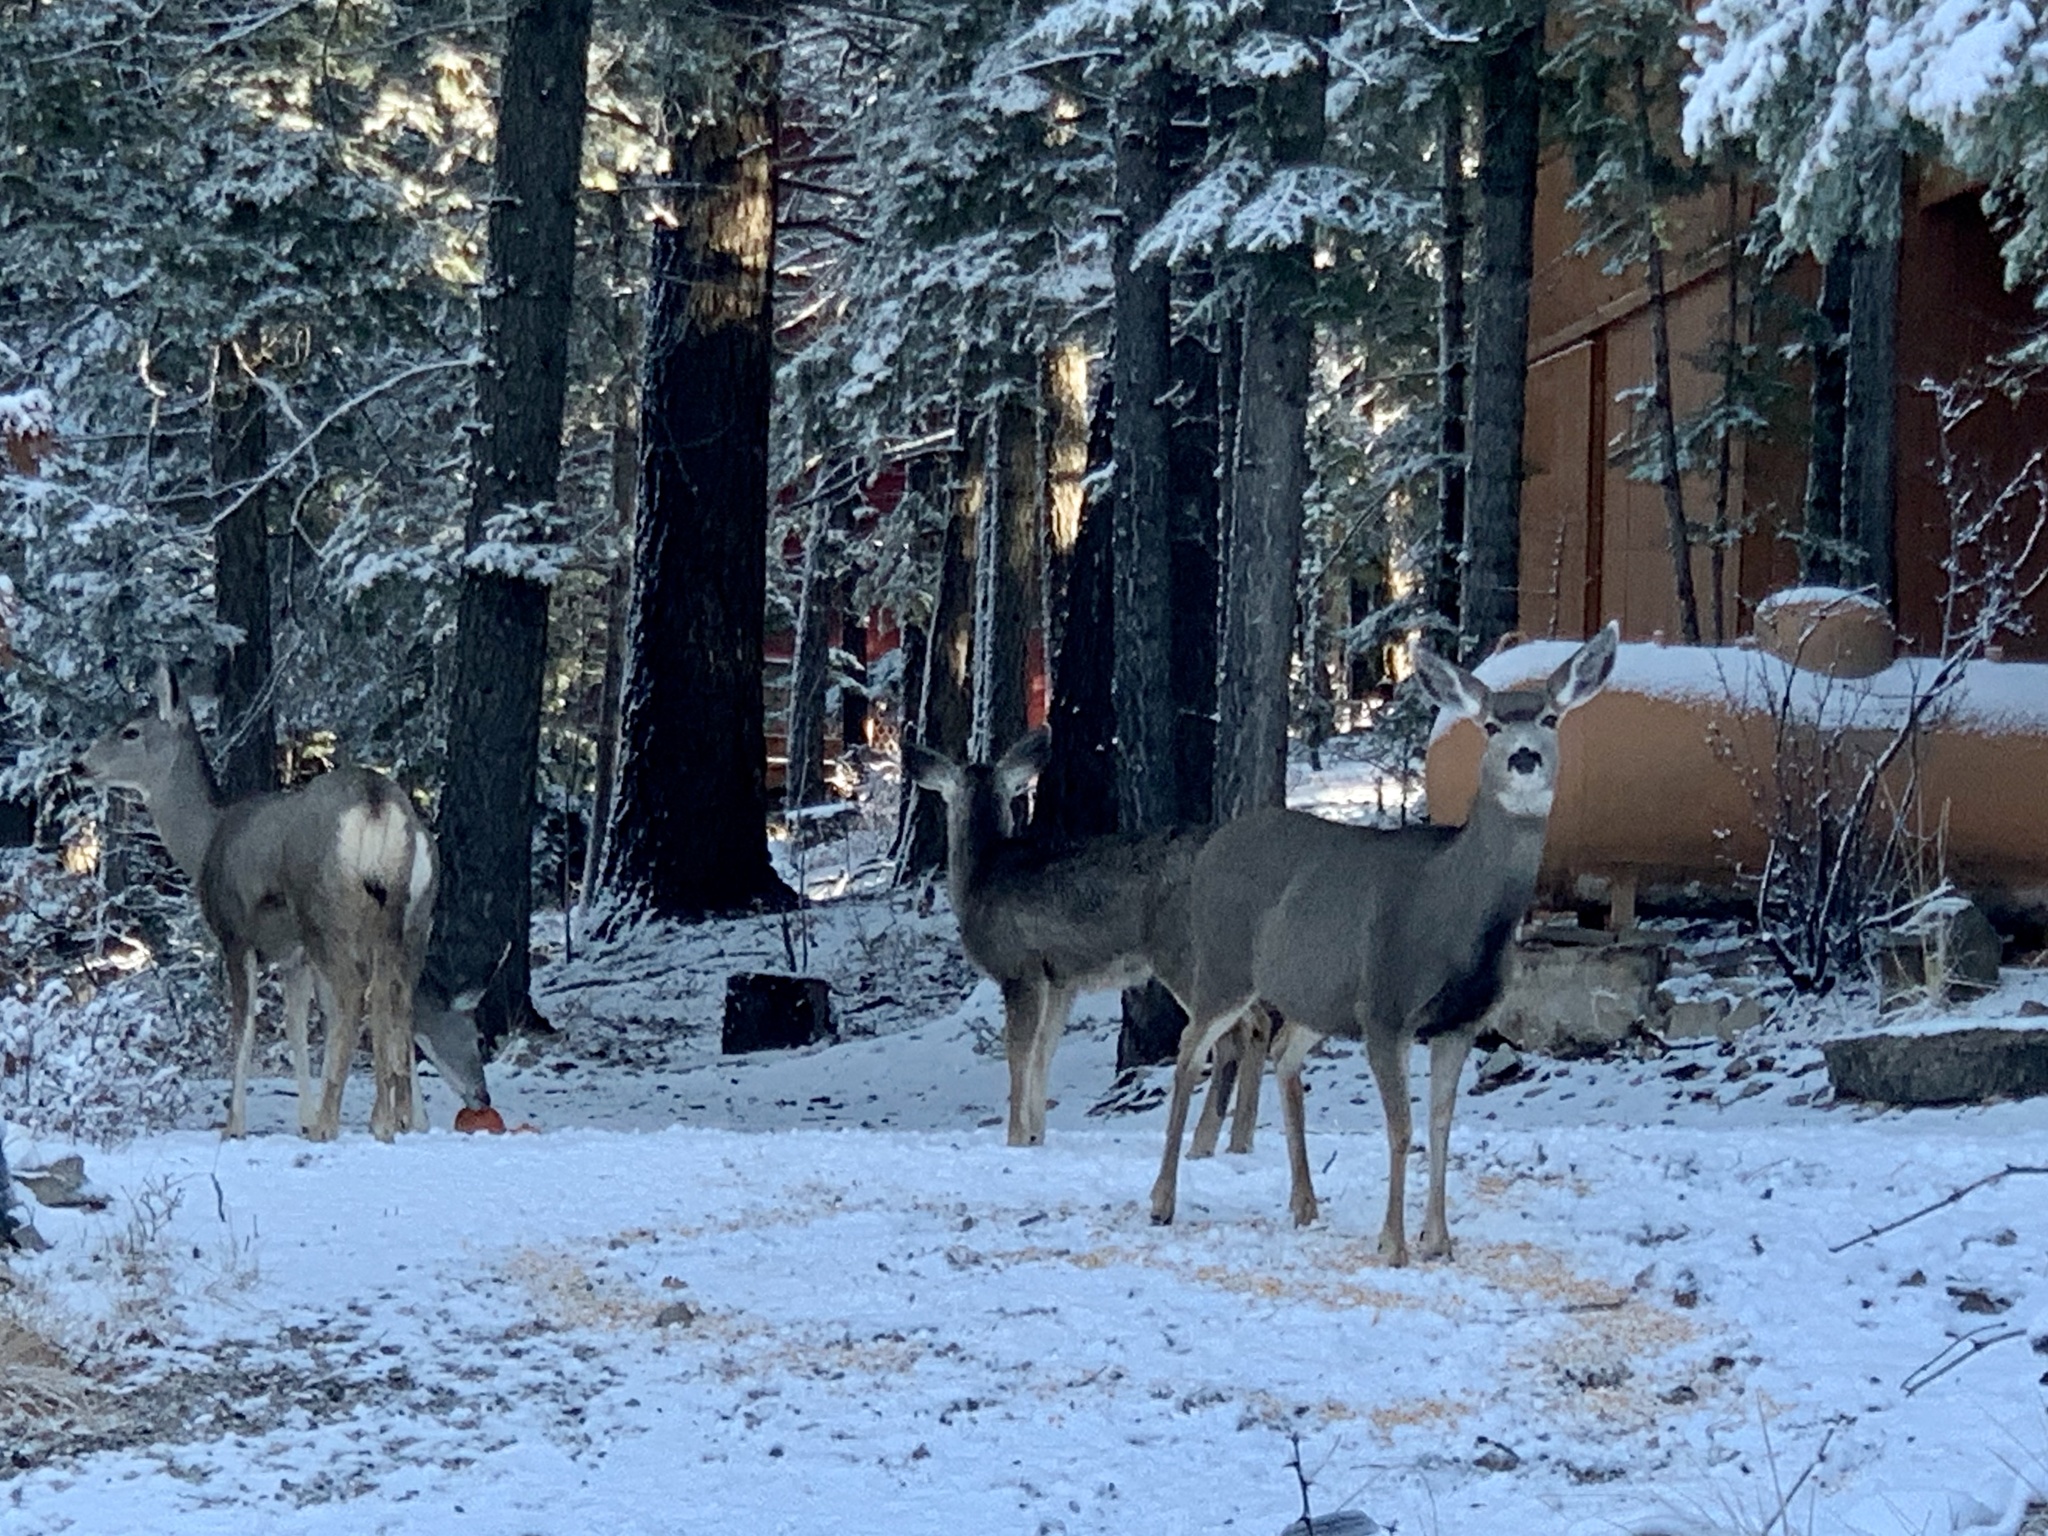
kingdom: Animalia
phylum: Chordata
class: Mammalia
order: Artiodactyla
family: Cervidae
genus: Odocoileus
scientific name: Odocoileus hemionus
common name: Mule deer
